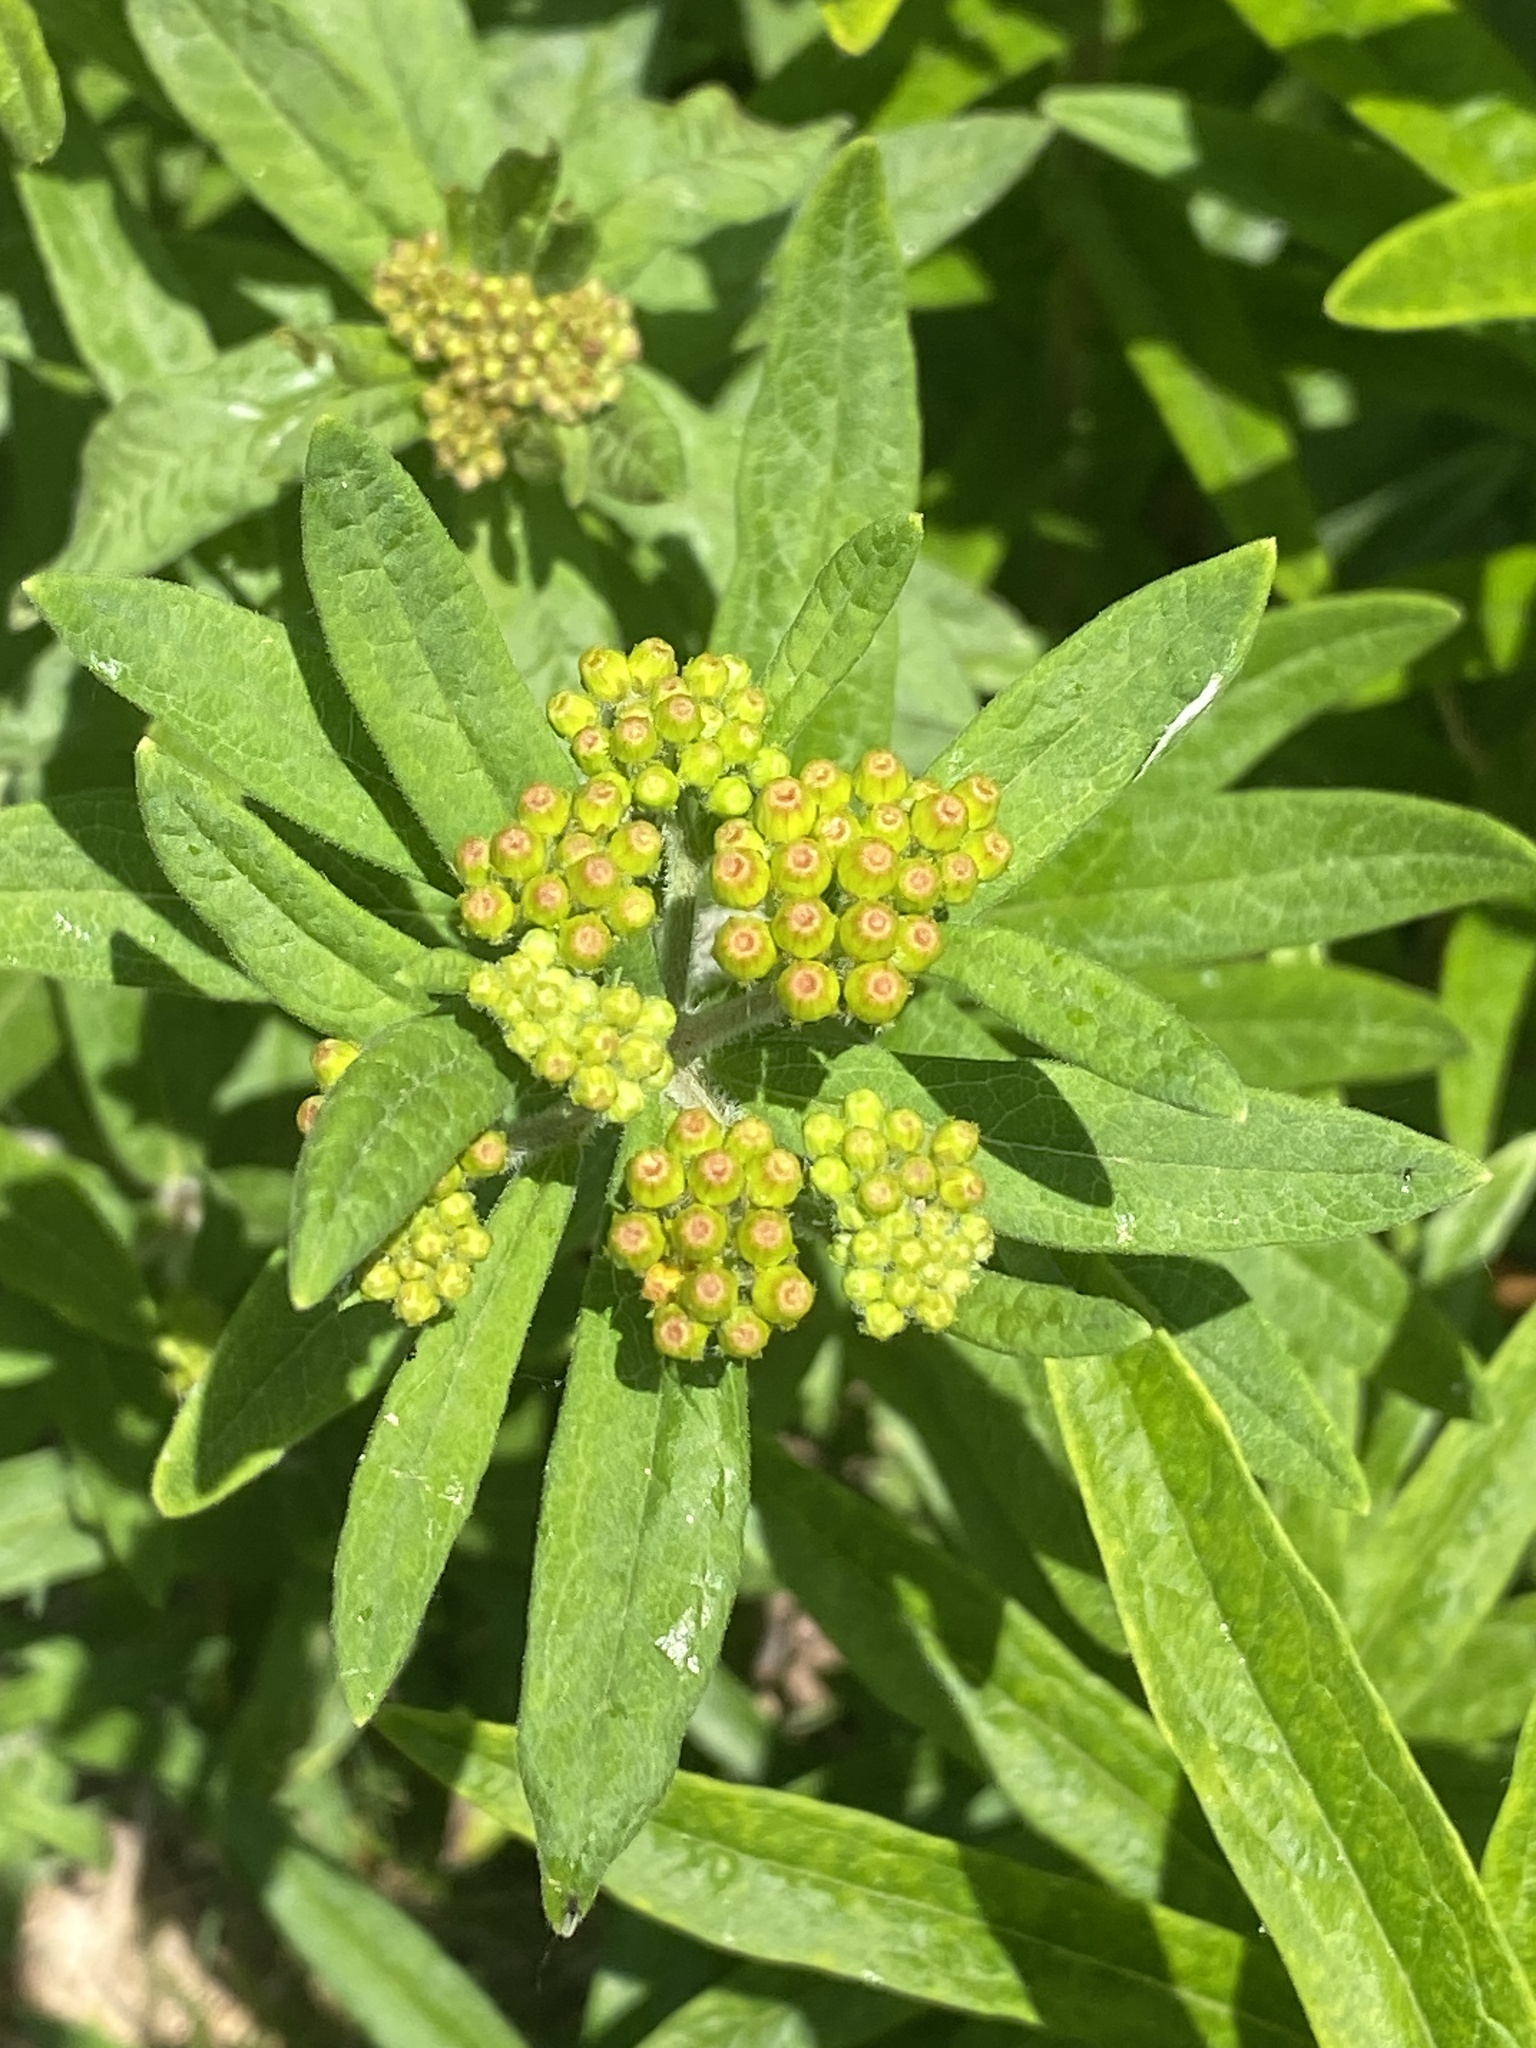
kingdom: Plantae
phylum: Tracheophyta
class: Magnoliopsida
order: Gentianales
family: Apocynaceae
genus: Asclepias
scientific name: Asclepias tuberosa
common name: Butterfly milkweed
